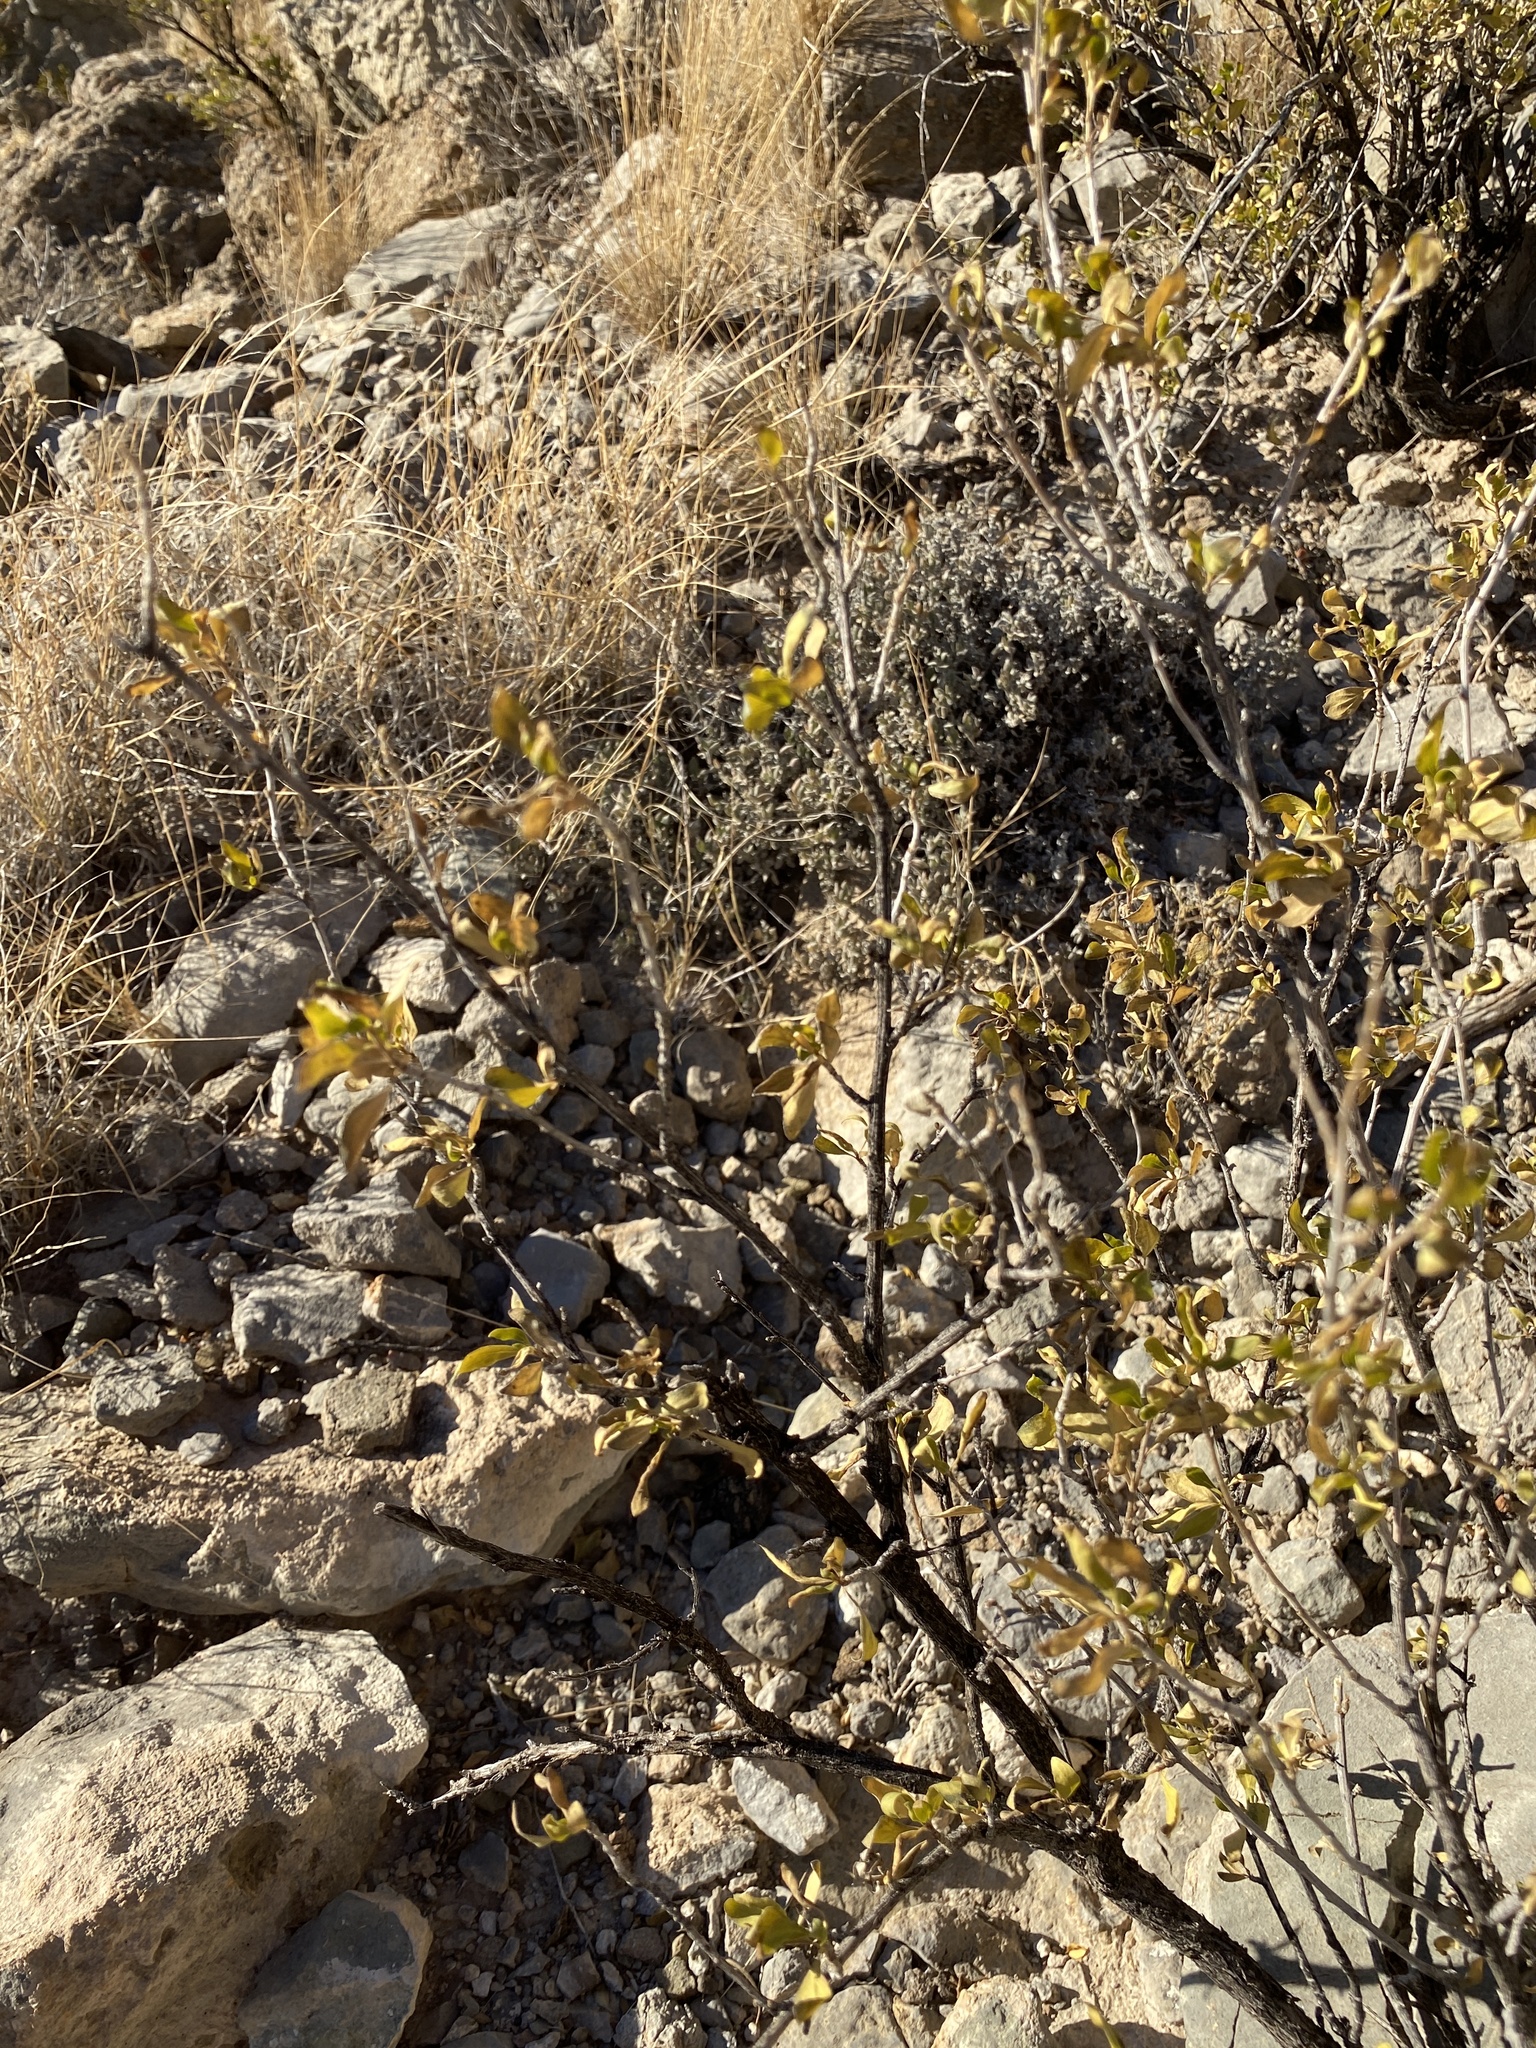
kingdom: Plantae
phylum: Tracheophyta
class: Magnoliopsida
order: Asterales
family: Asteraceae
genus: Flourensia
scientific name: Flourensia cernua
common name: Varnishbush
